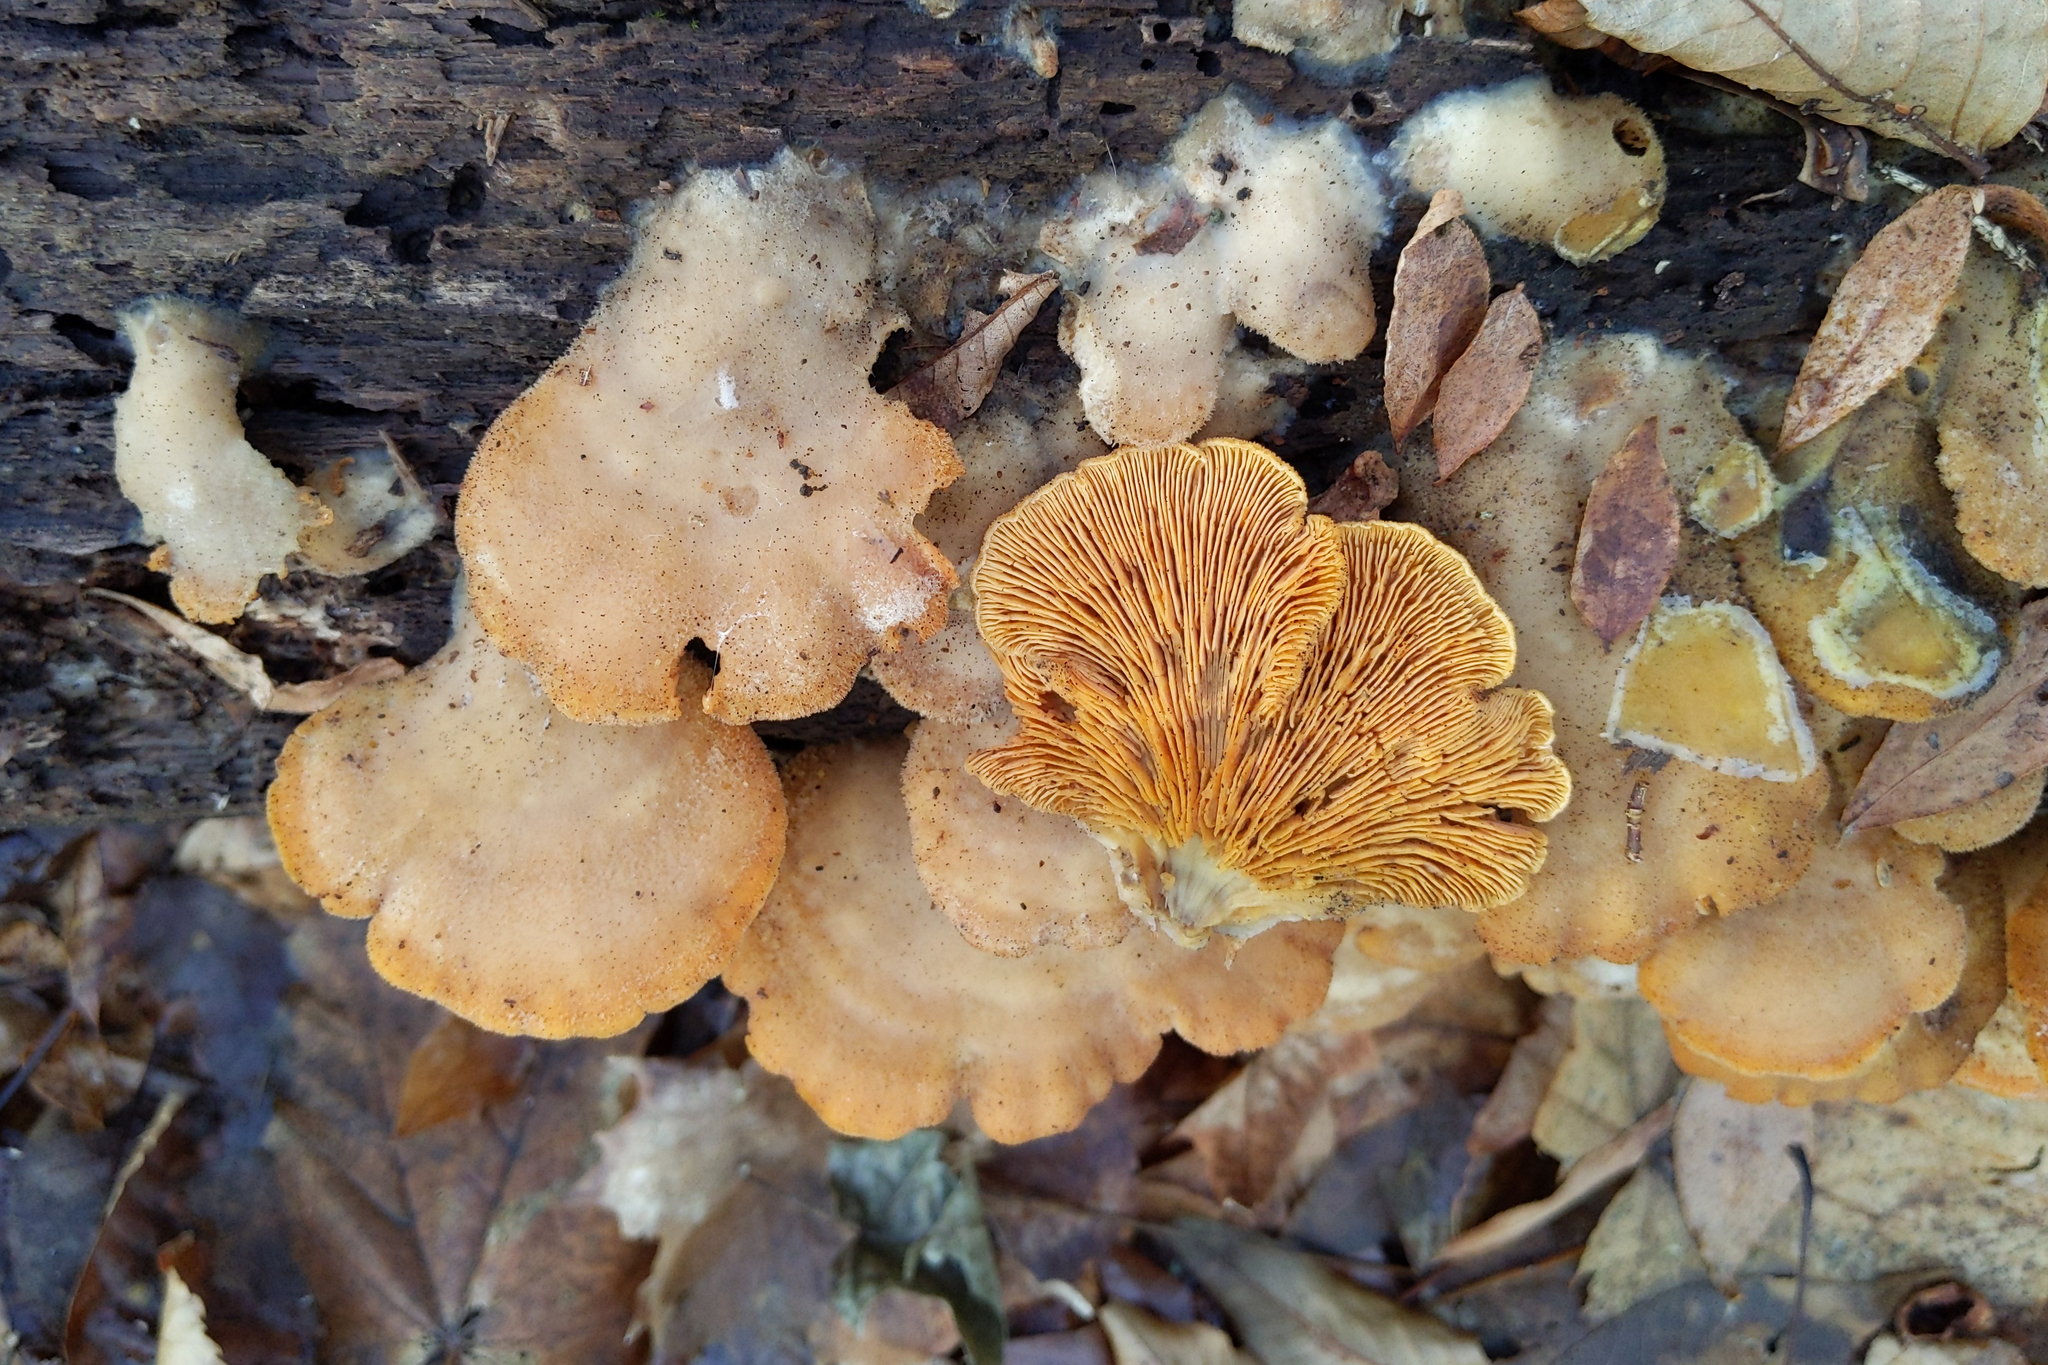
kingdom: Fungi
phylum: Basidiomycota
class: Agaricomycetes
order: Agaricales
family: Phyllotopsidaceae
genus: Phyllotopsis
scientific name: Phyllotopsis nidulans
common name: Orange mock oyster
